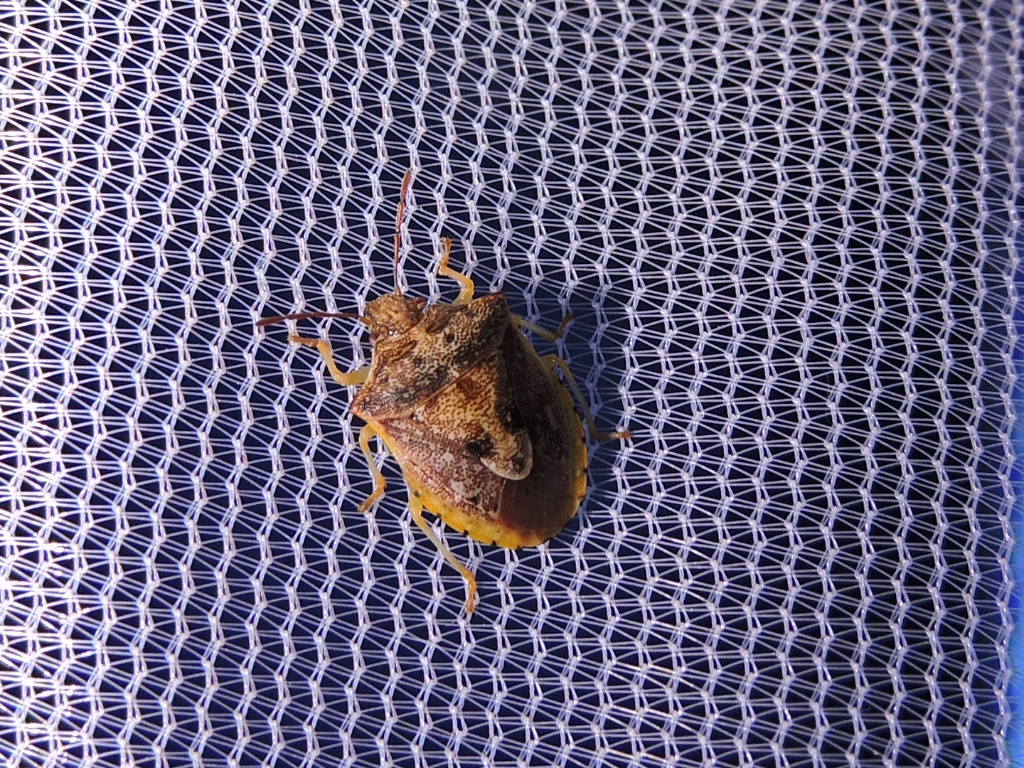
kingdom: Animalia
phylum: Arthropoda
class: Insecta
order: Hemiptera
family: Pentatomidae
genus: Dendrocoris
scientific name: Dendrocoris humeralis
